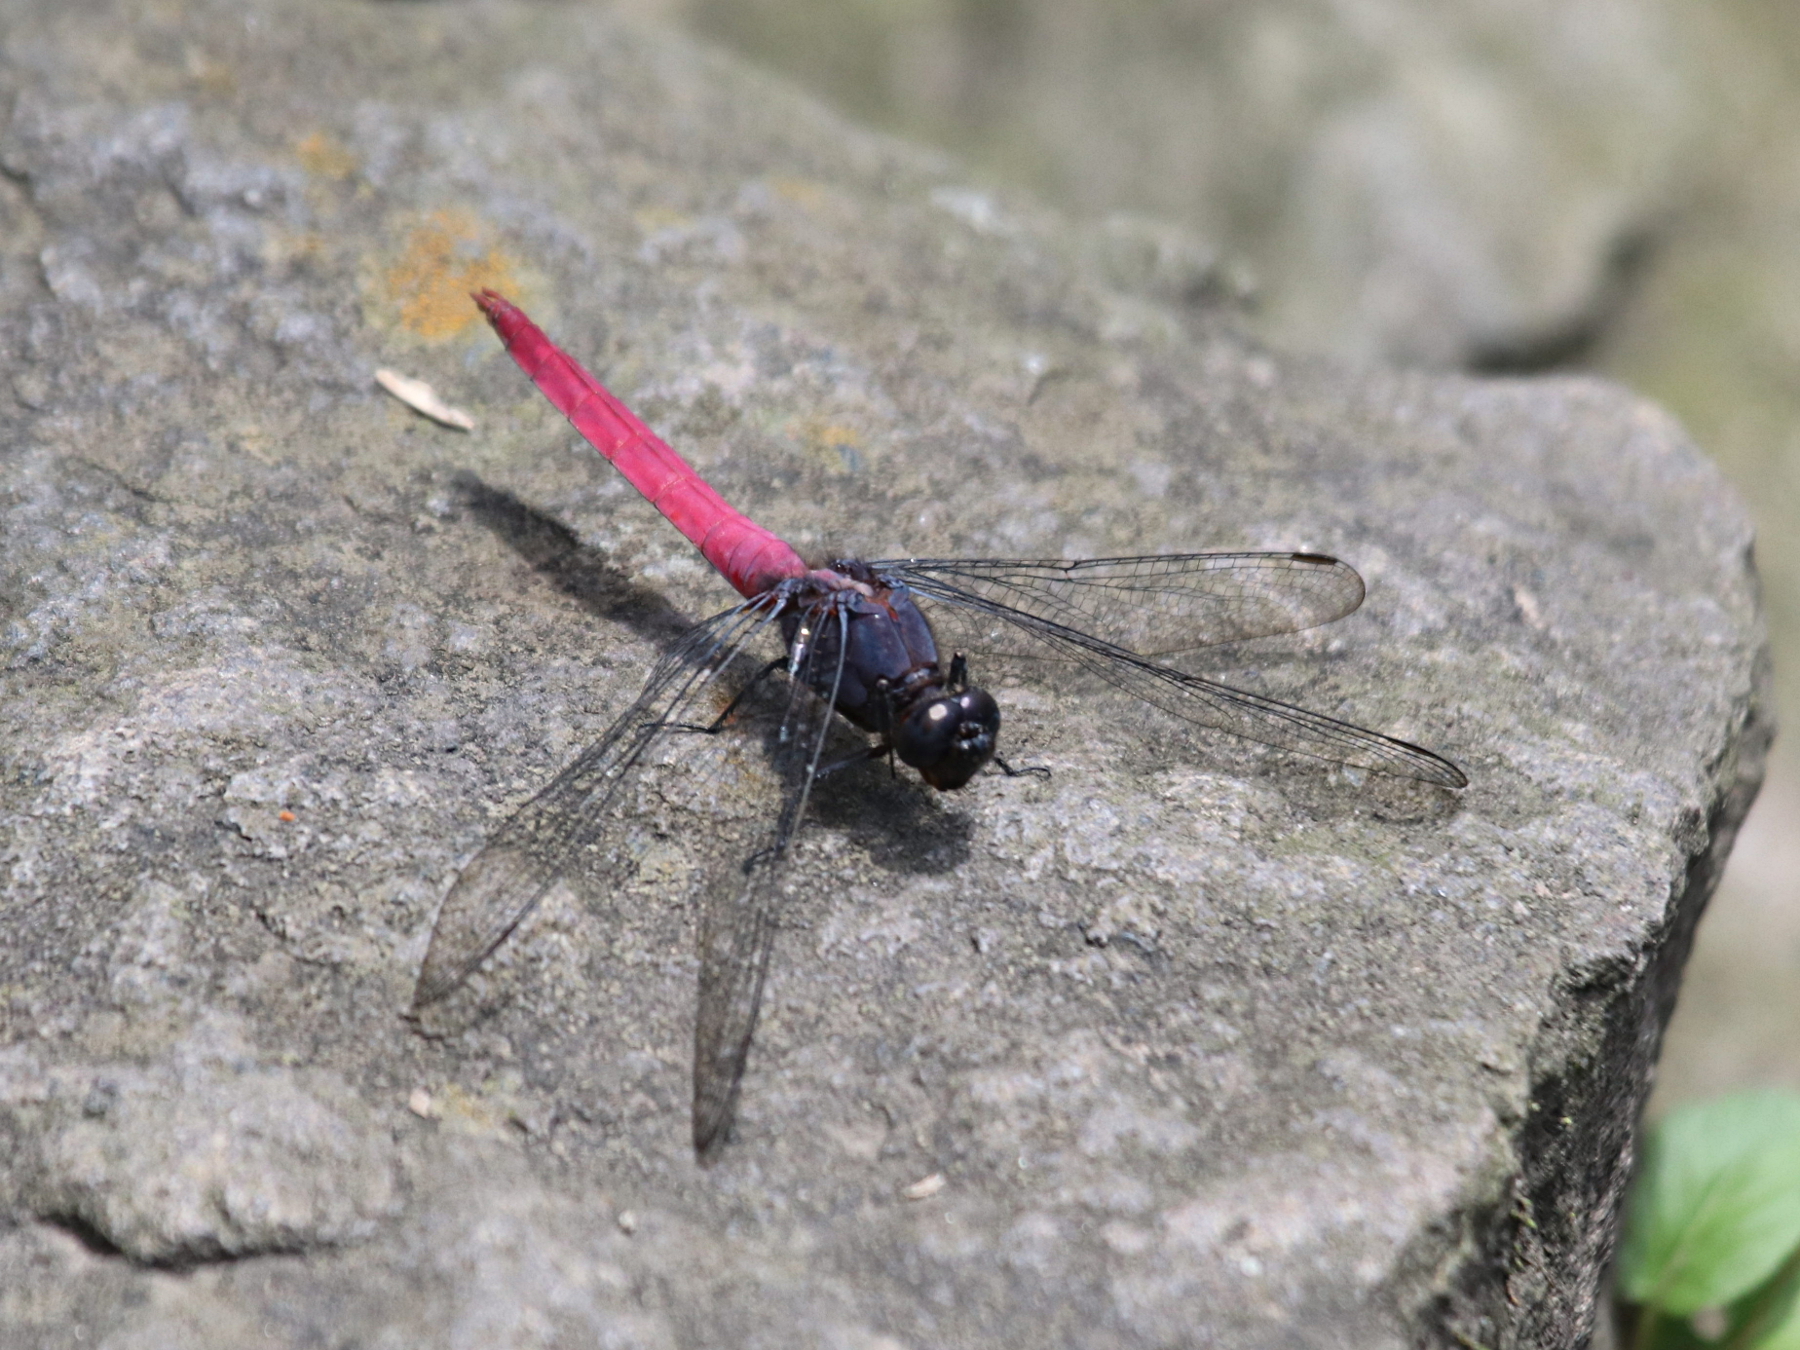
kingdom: Animalia
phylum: Arthropoda
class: Insecta
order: Odonata
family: Libellulidae
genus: Orthetrum
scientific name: Orthetrum pruinosum
